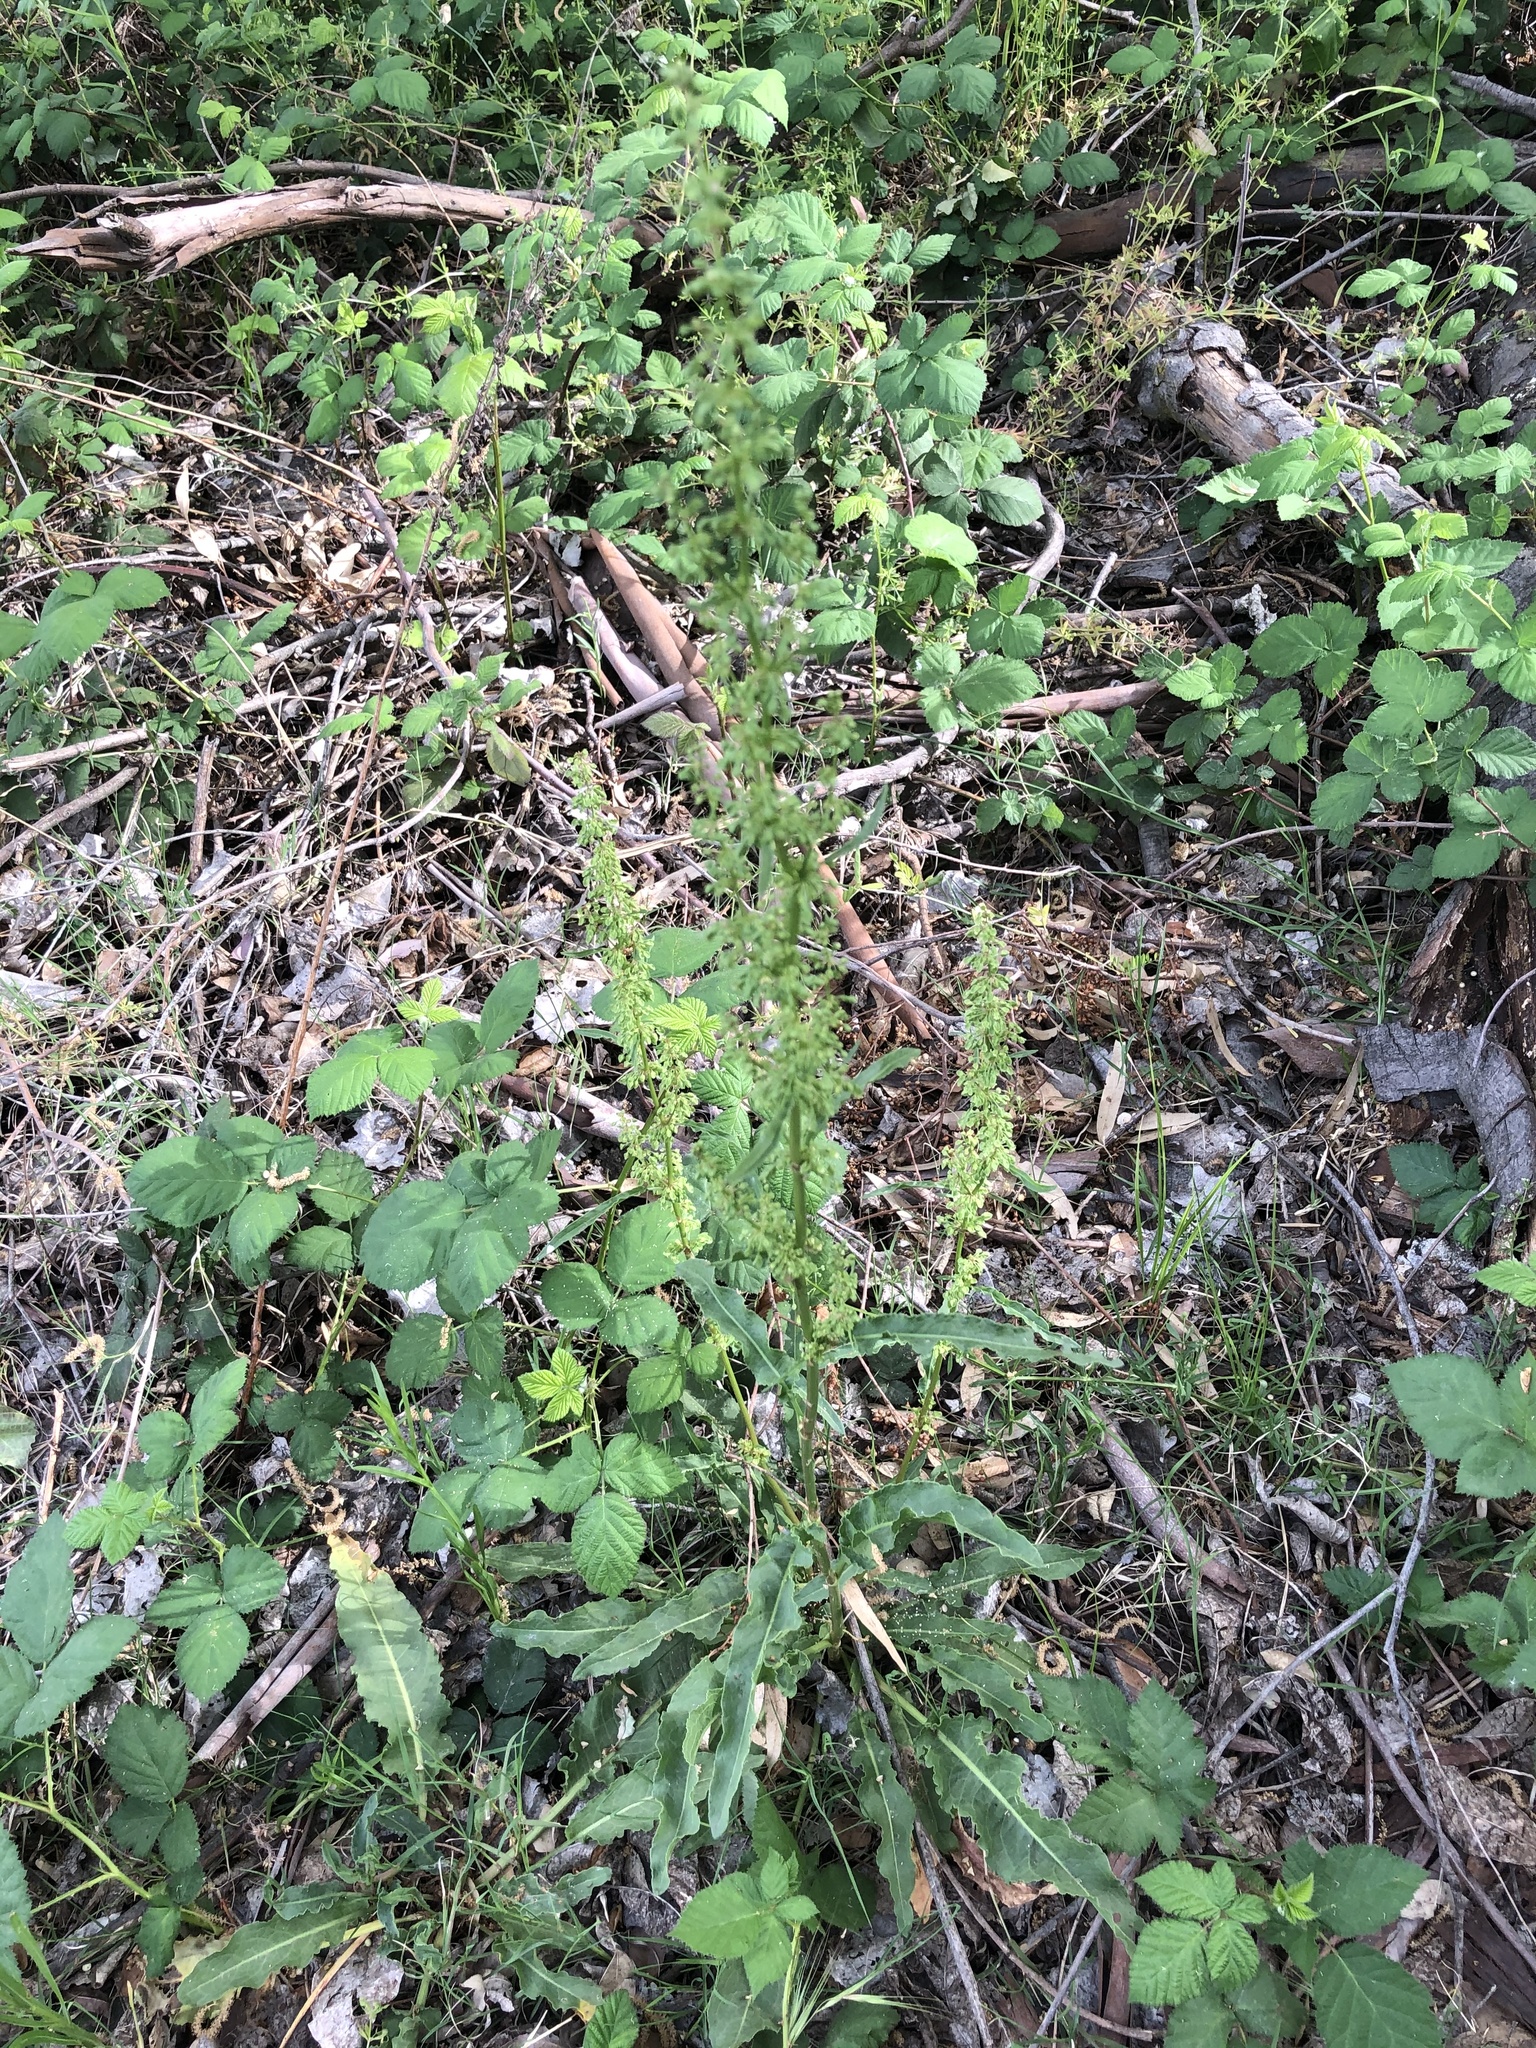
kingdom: Plantae
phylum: Tracheophyta
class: Magnoliopsida
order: Caryophyllales
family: Polygonaceae
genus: Rumex
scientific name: Rumex crispus
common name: Curled dock
